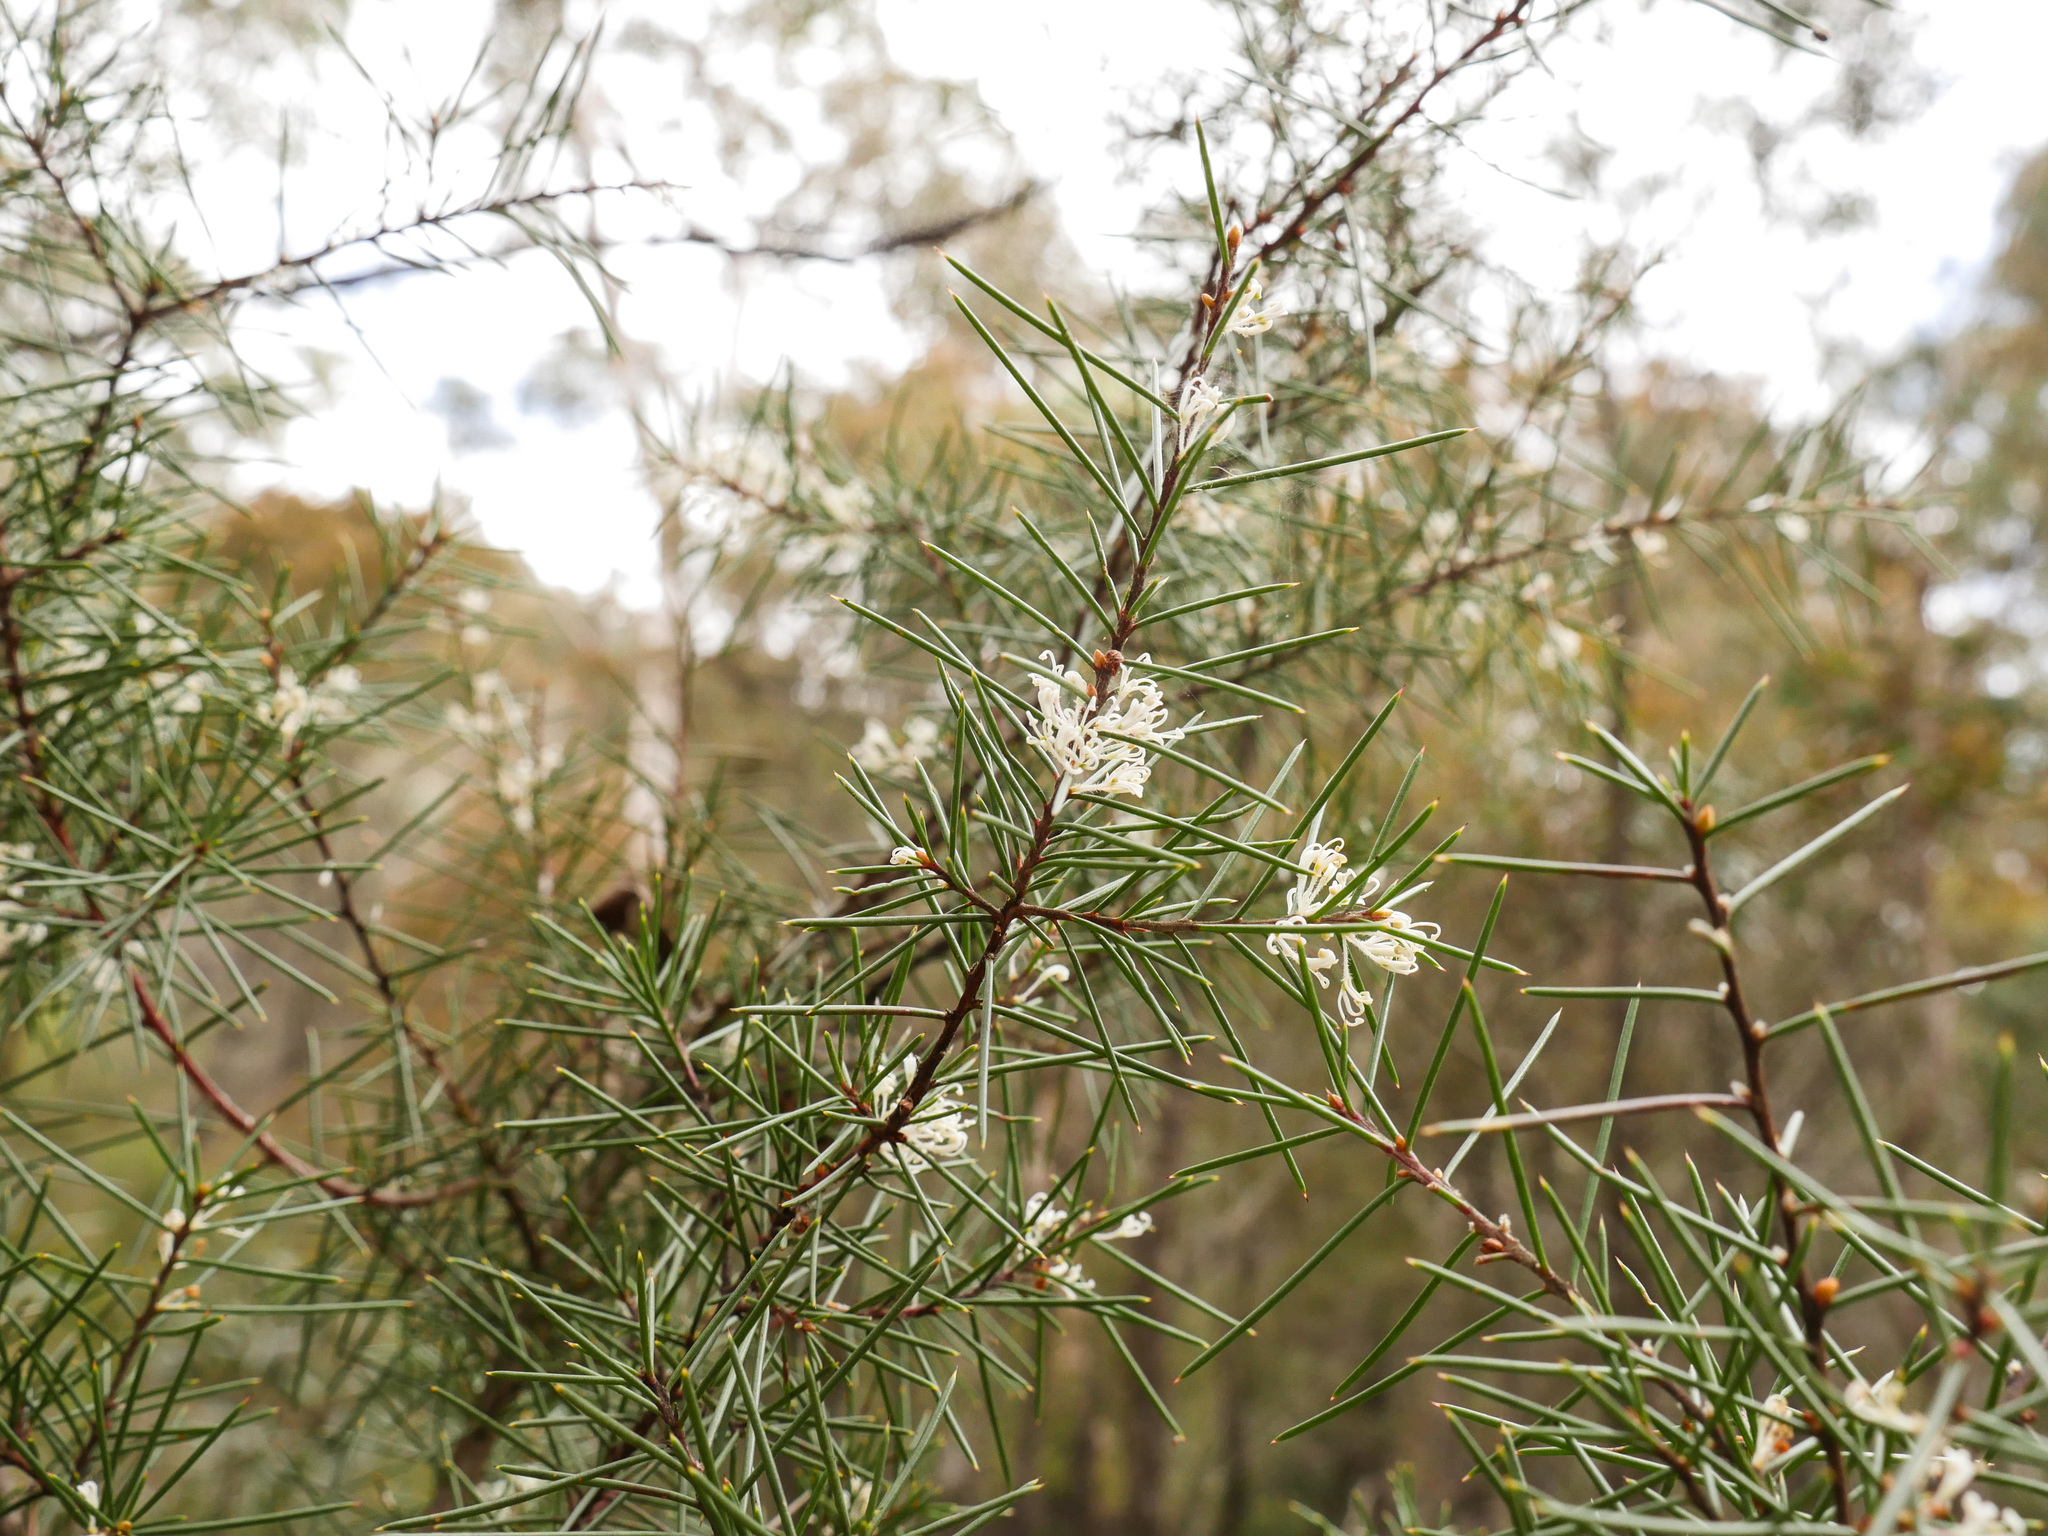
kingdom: Plantae
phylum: Tracheophyta
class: Magnoliopsida
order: Proteales
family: Proteaceae
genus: Hakea
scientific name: Hakea sericea
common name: Needle bush
